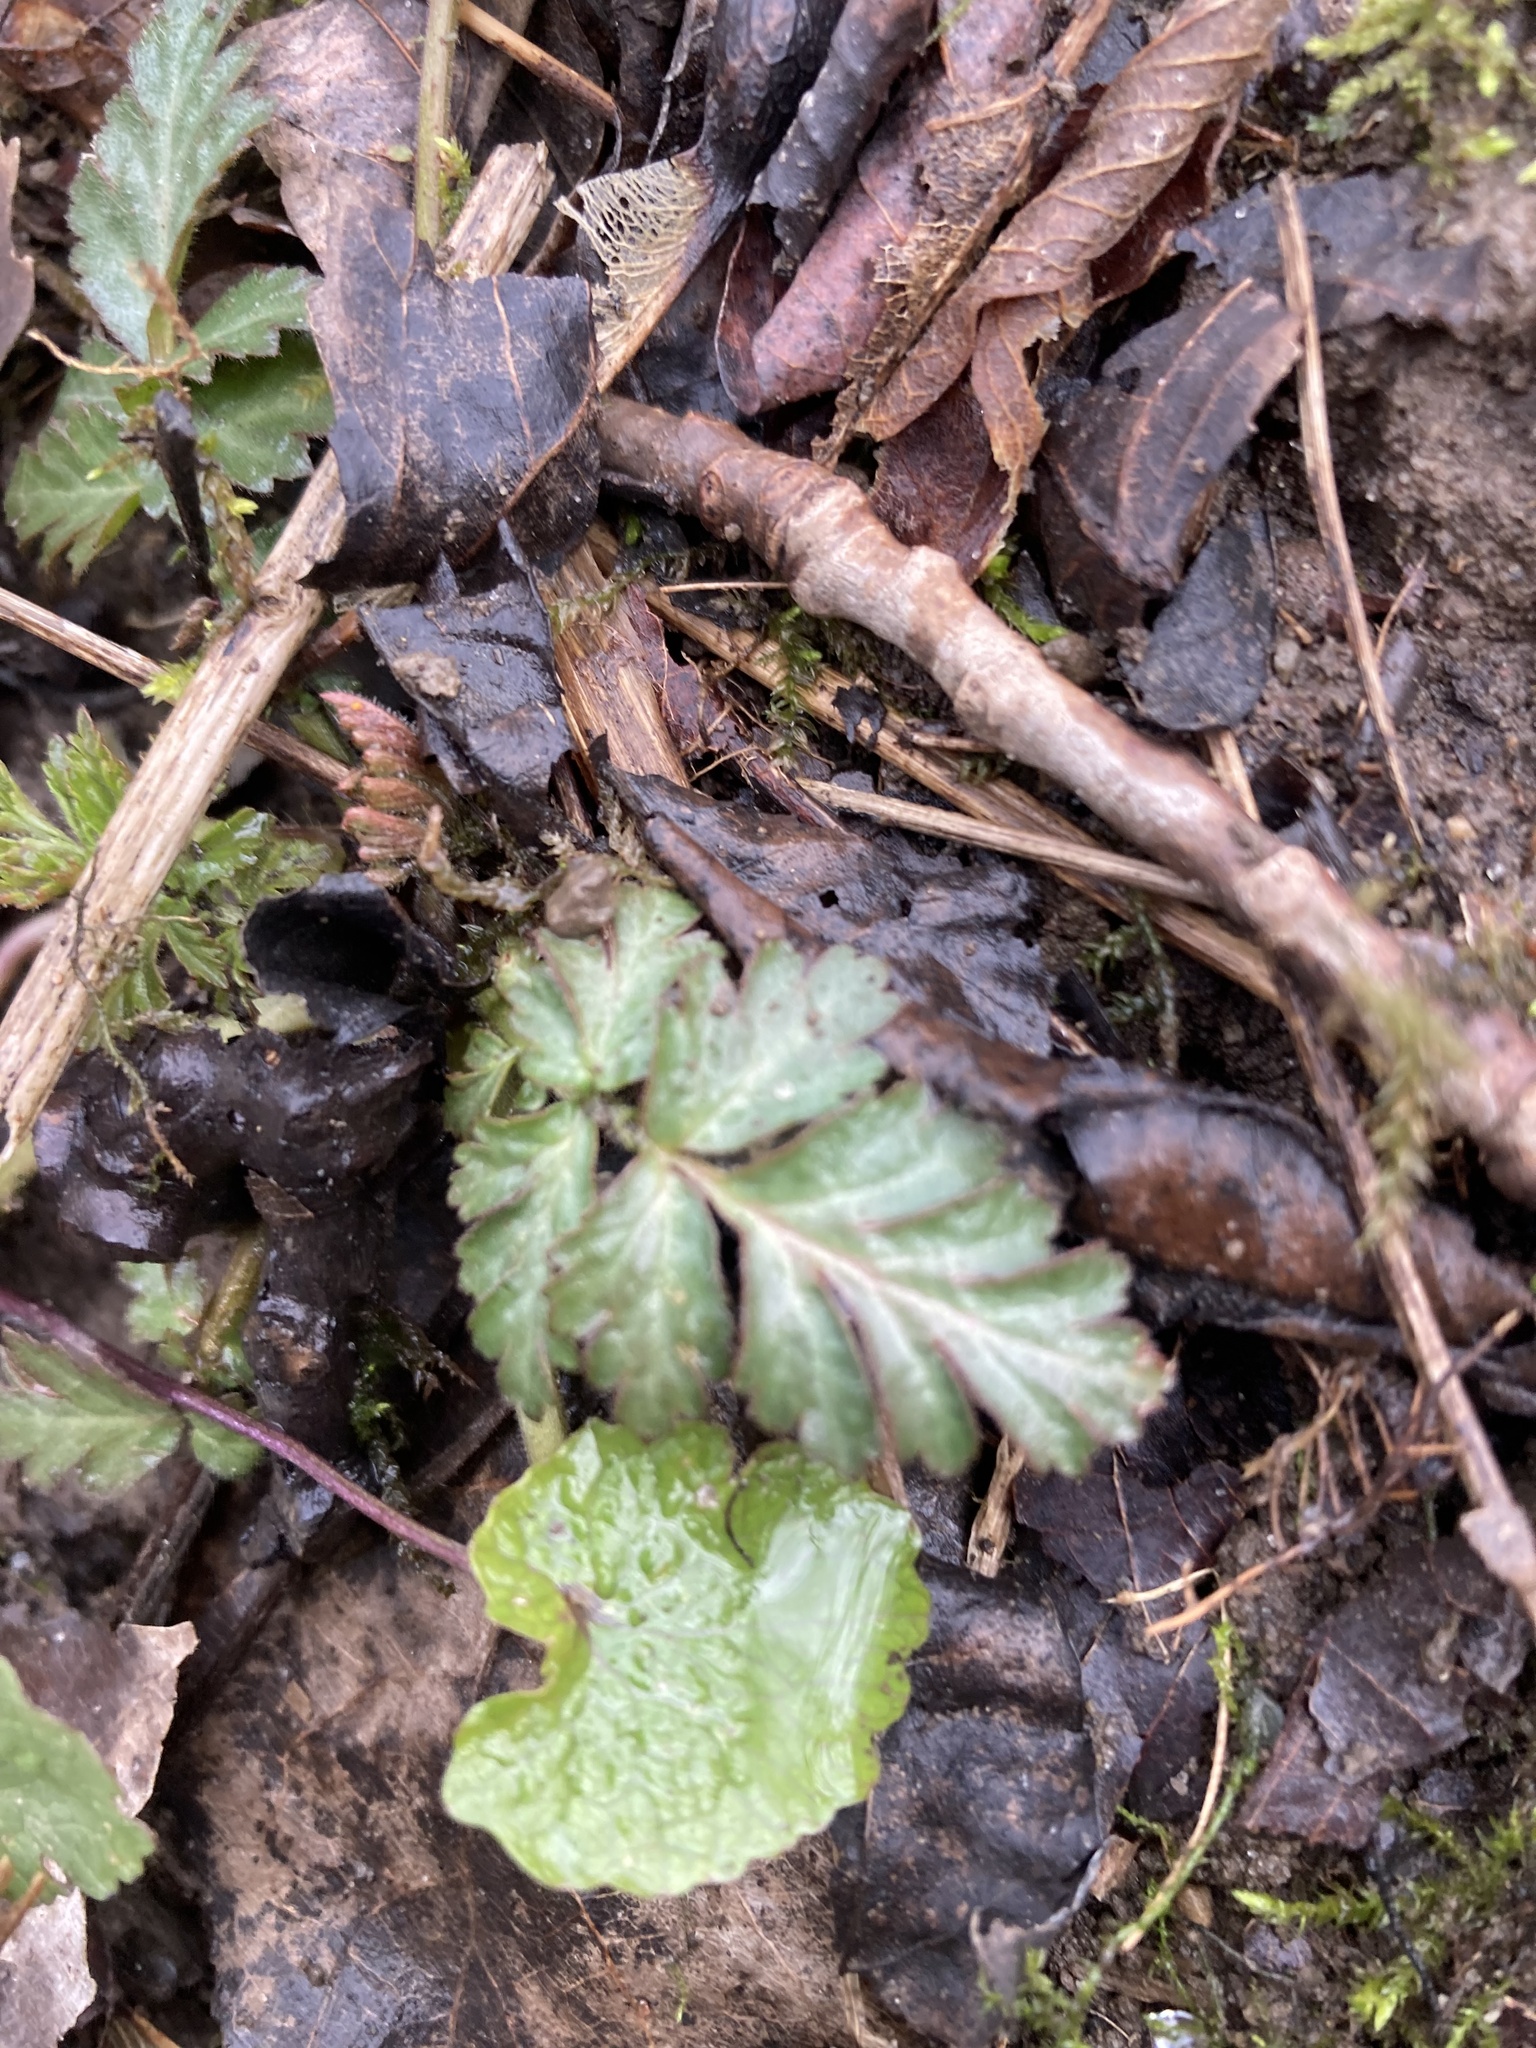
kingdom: Plantae
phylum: Tracheophyta
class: Magnoliopsida
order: Rosales
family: Rosaceae
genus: Geum
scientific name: Geum canadense
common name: White avens
